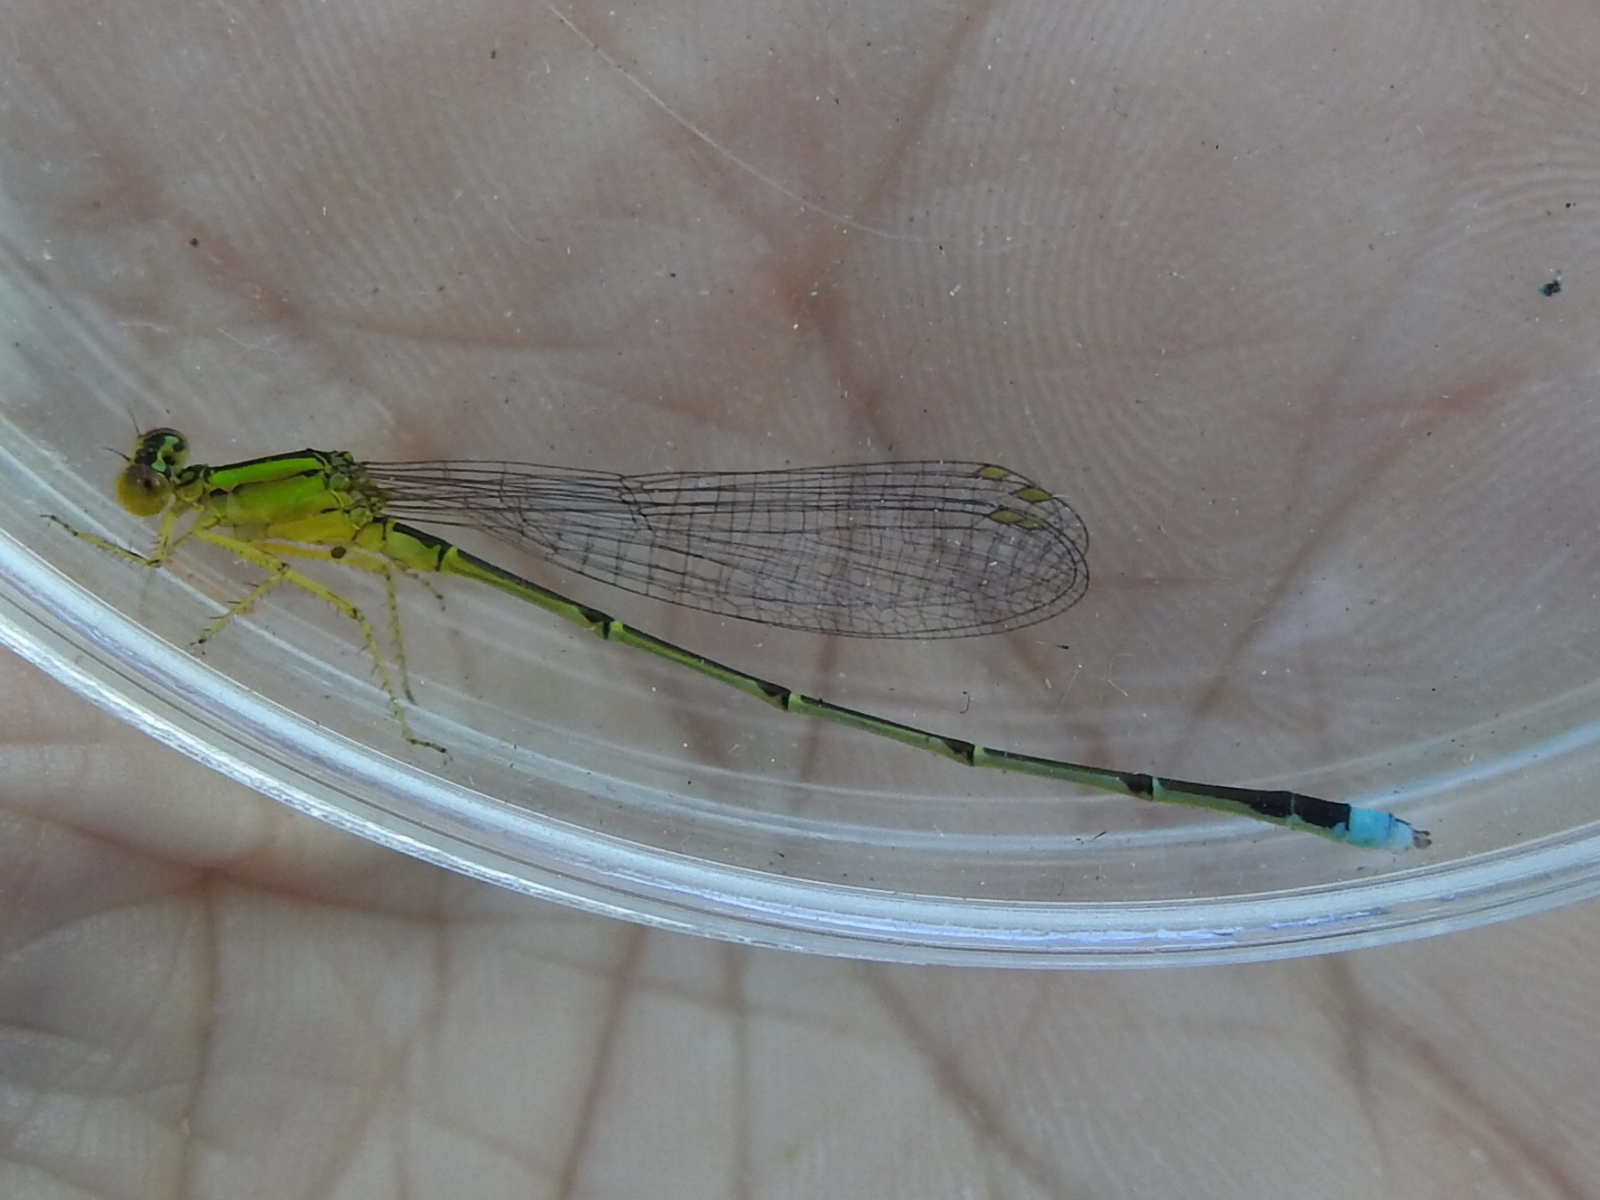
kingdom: Animalia
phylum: Arthropoda
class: Insecta
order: Odonata
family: Coenagrionidae
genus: Enallagma
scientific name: Enallagma vesperum
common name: Vesper bluet
